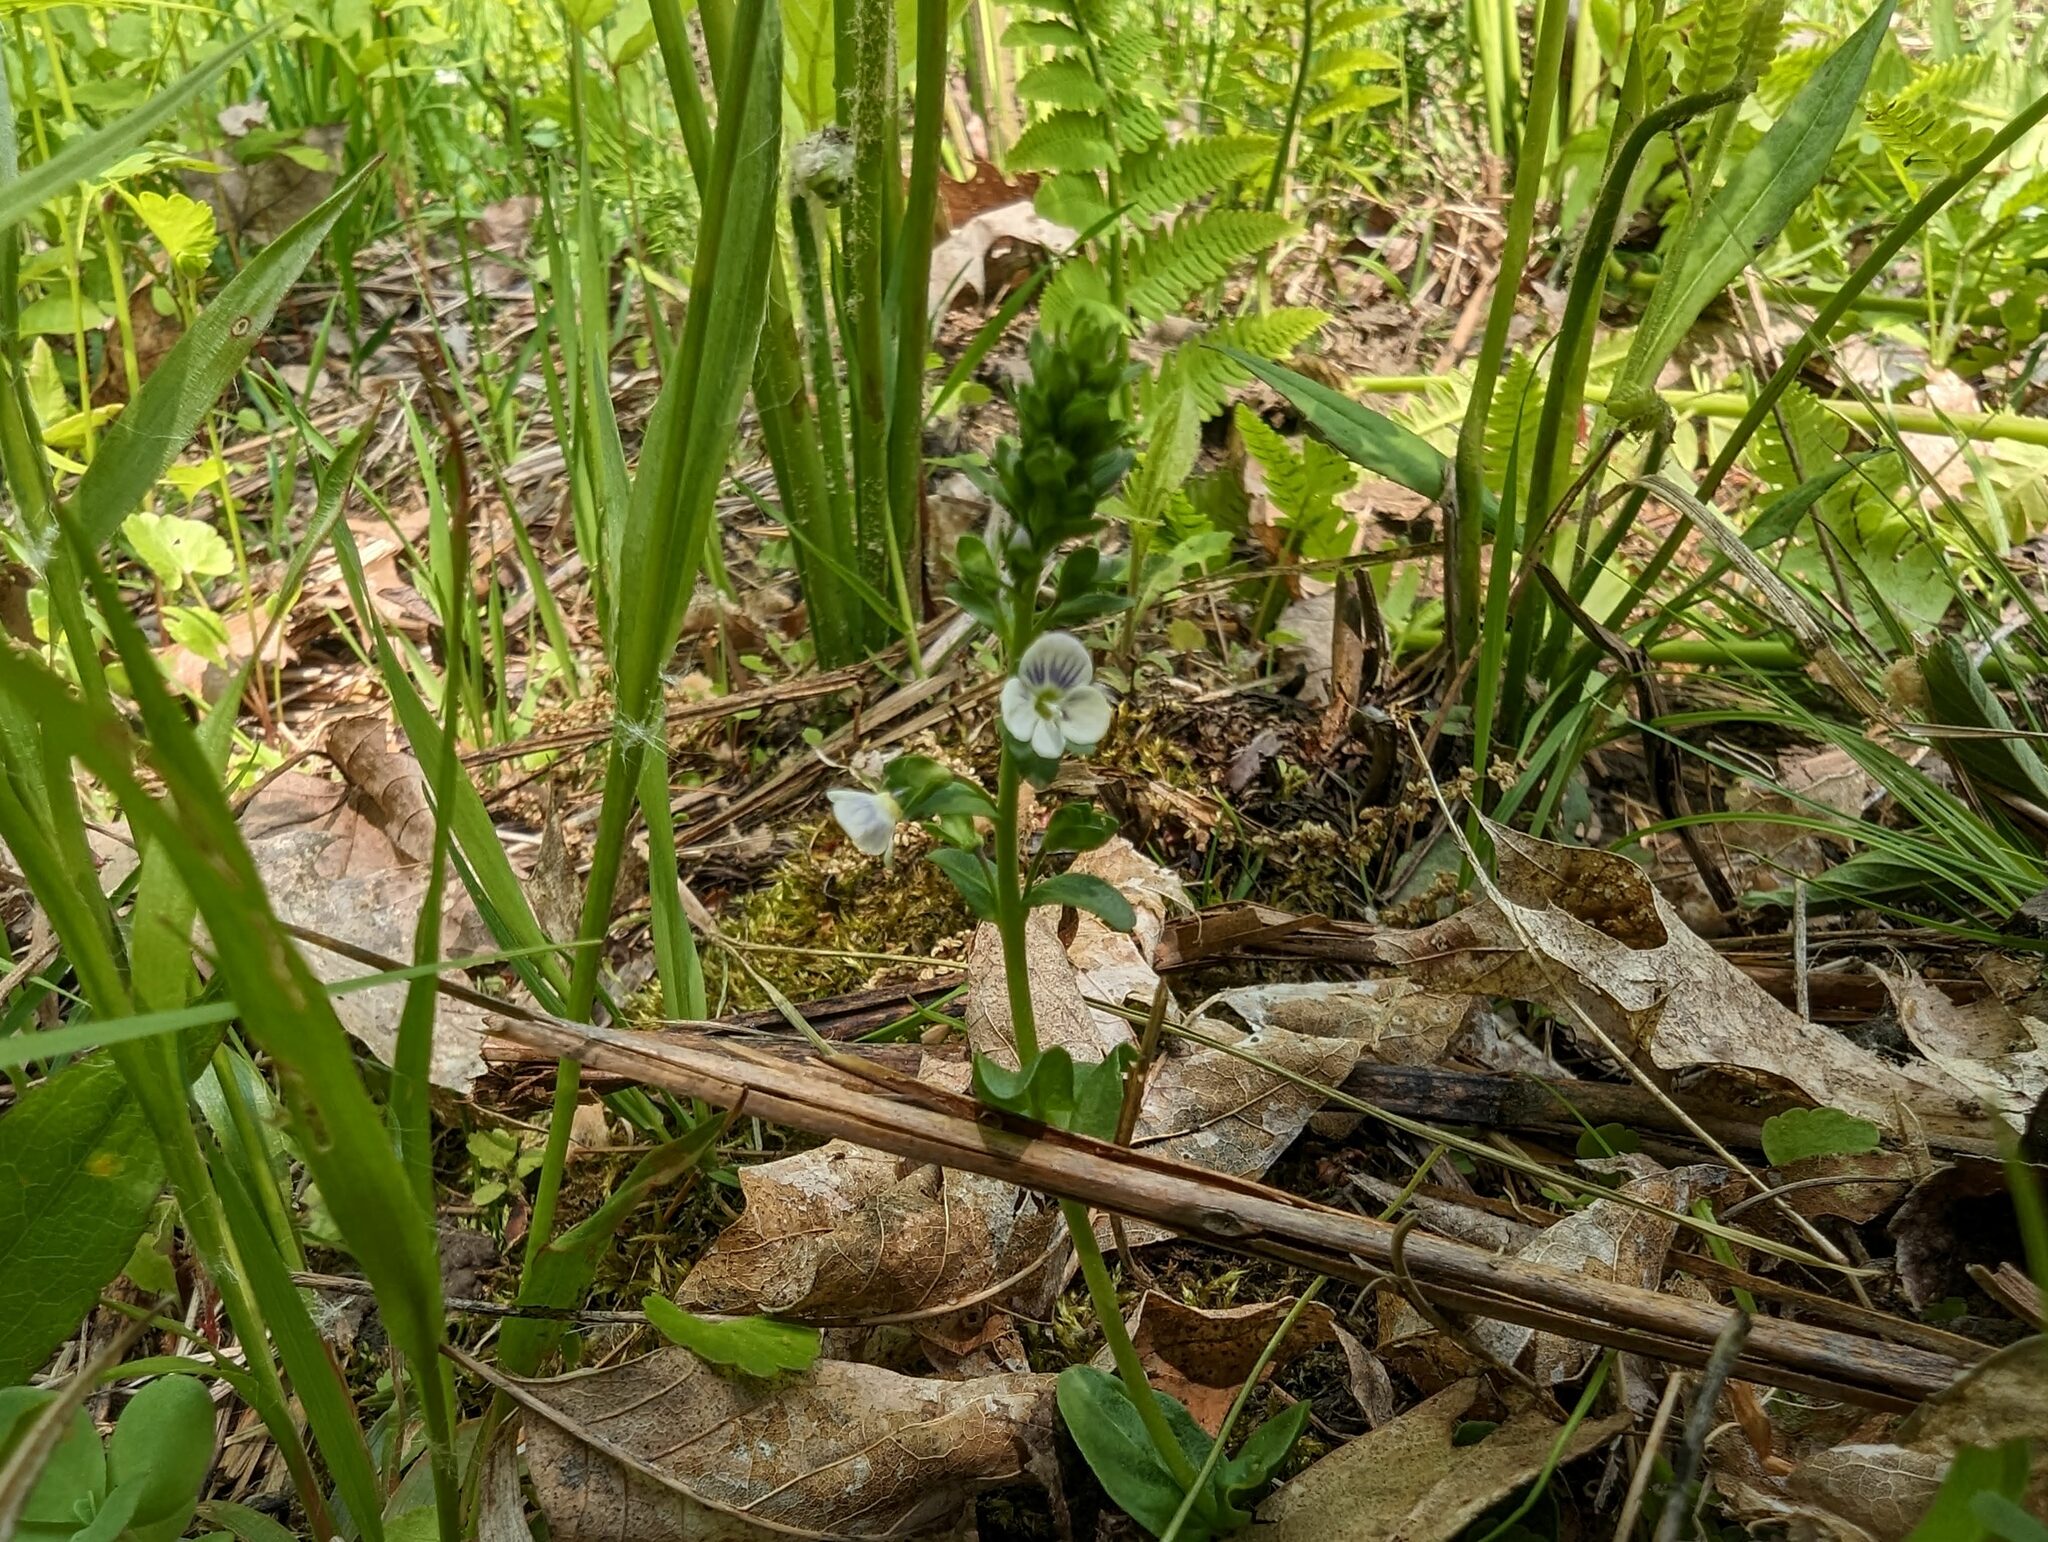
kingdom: Plantae
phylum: Tracheophyta
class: Magnoliopsida
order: Lamiales
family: Plantaginaceae
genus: Veronica
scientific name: Veronica serpyllifolia
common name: Thyme-leaved speedwell
